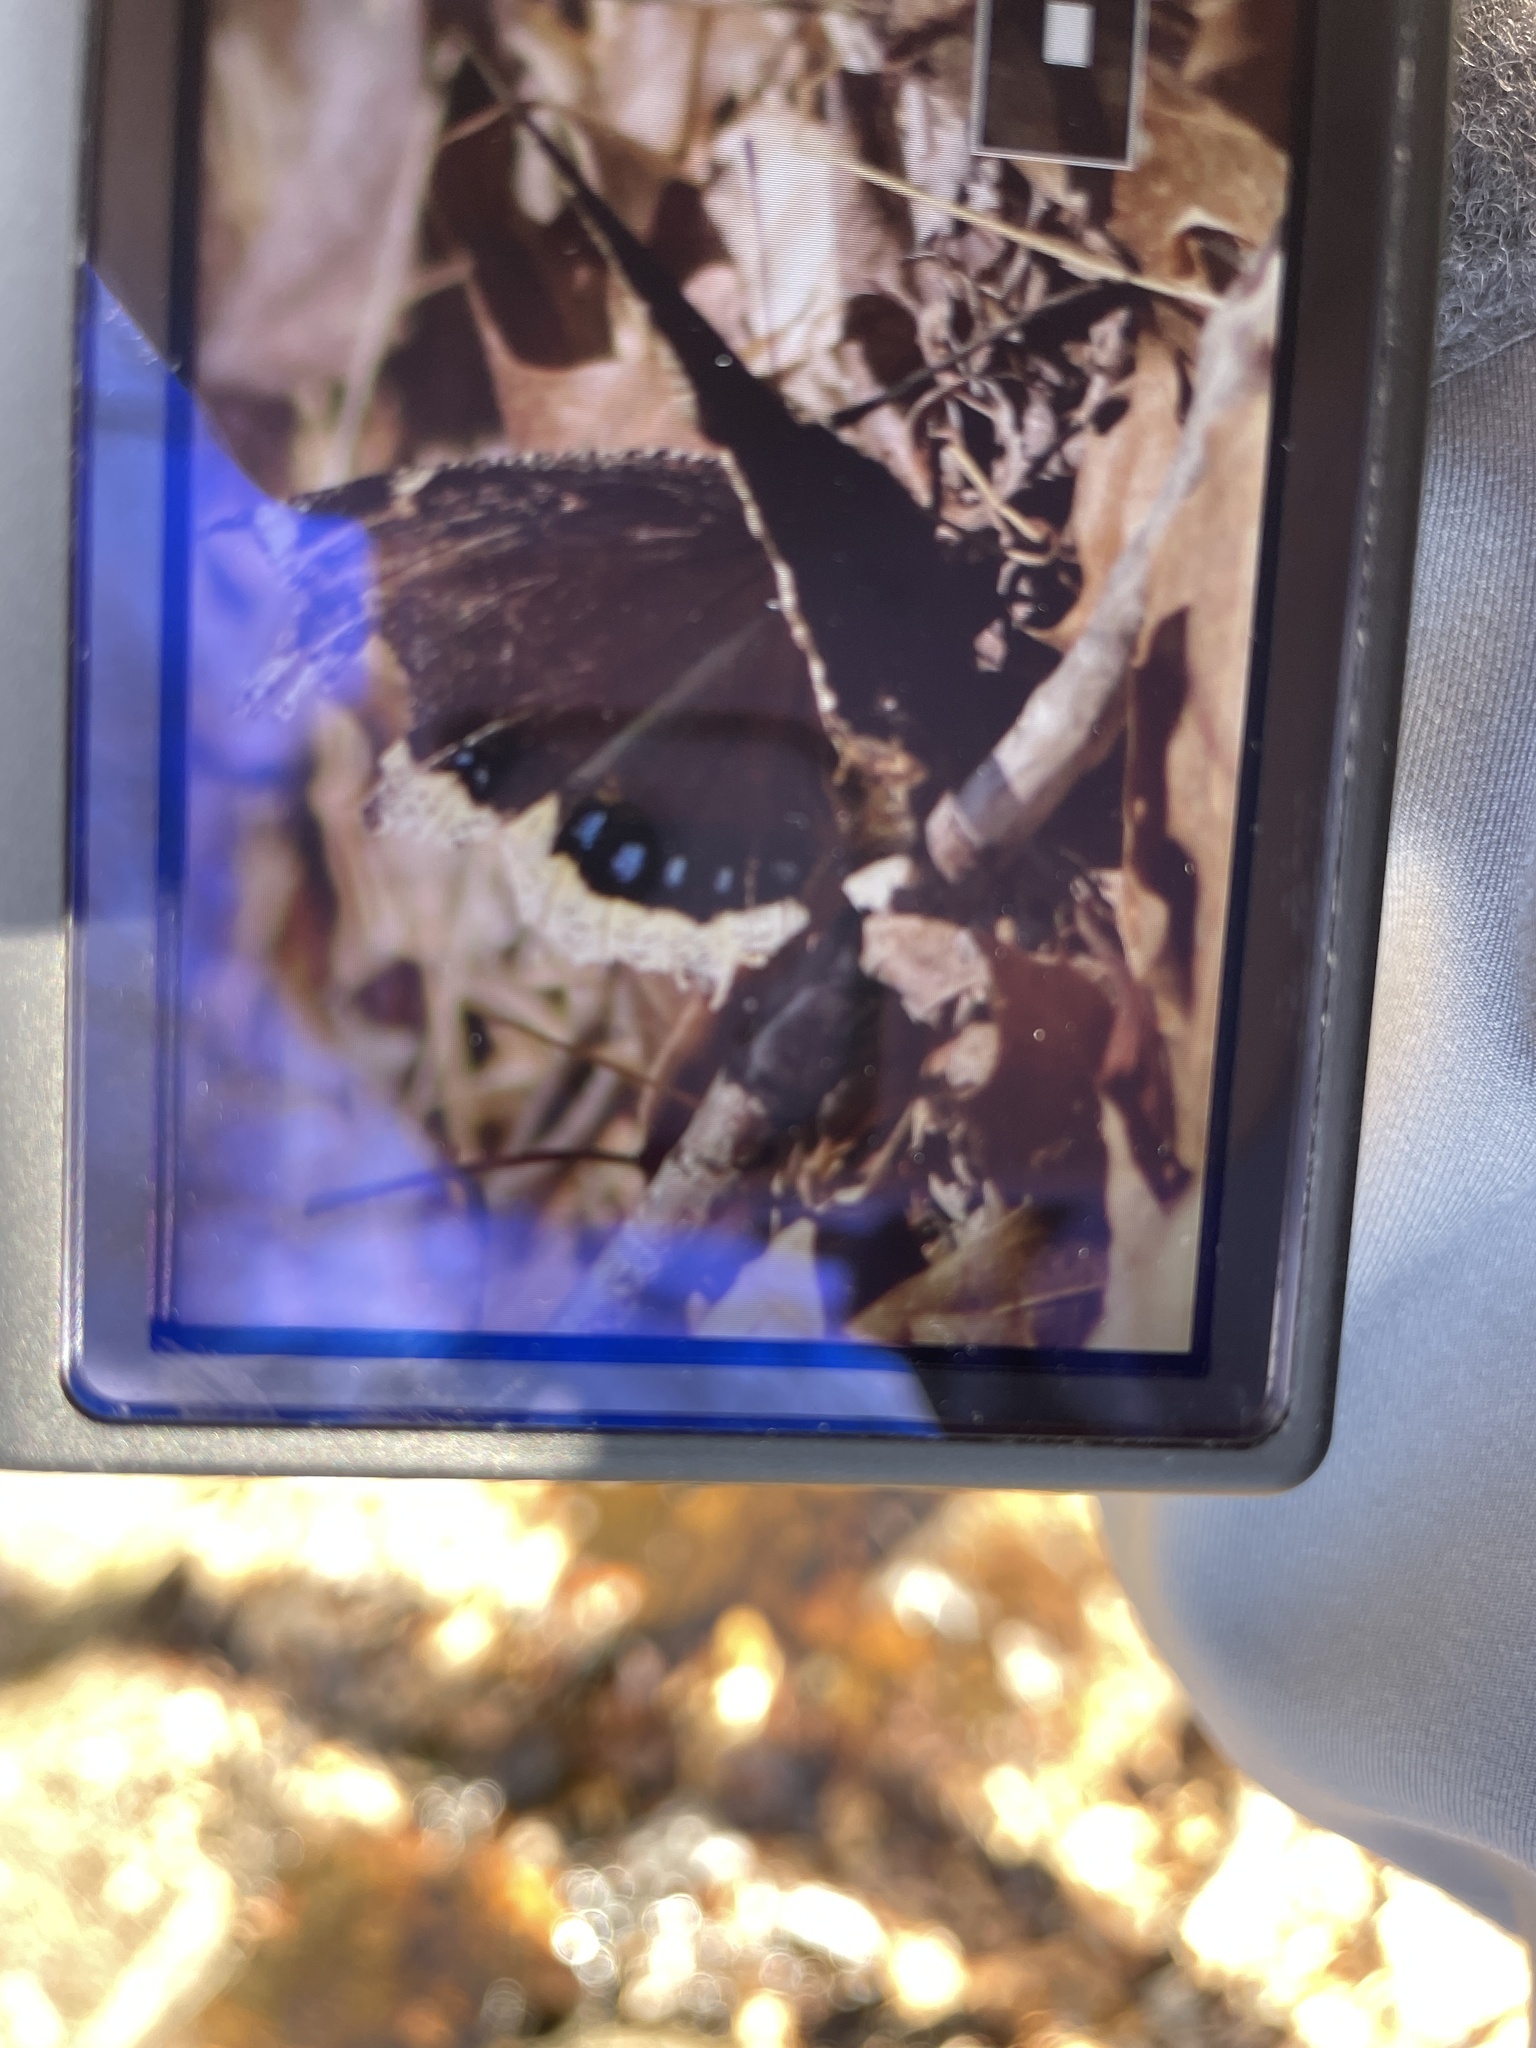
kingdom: Animalia
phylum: Arthropoda
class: Insecta
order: Lepidoptera
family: Nymphalidae
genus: Nymphalis
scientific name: Nymphalis antiopa
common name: Camberwell beauty
